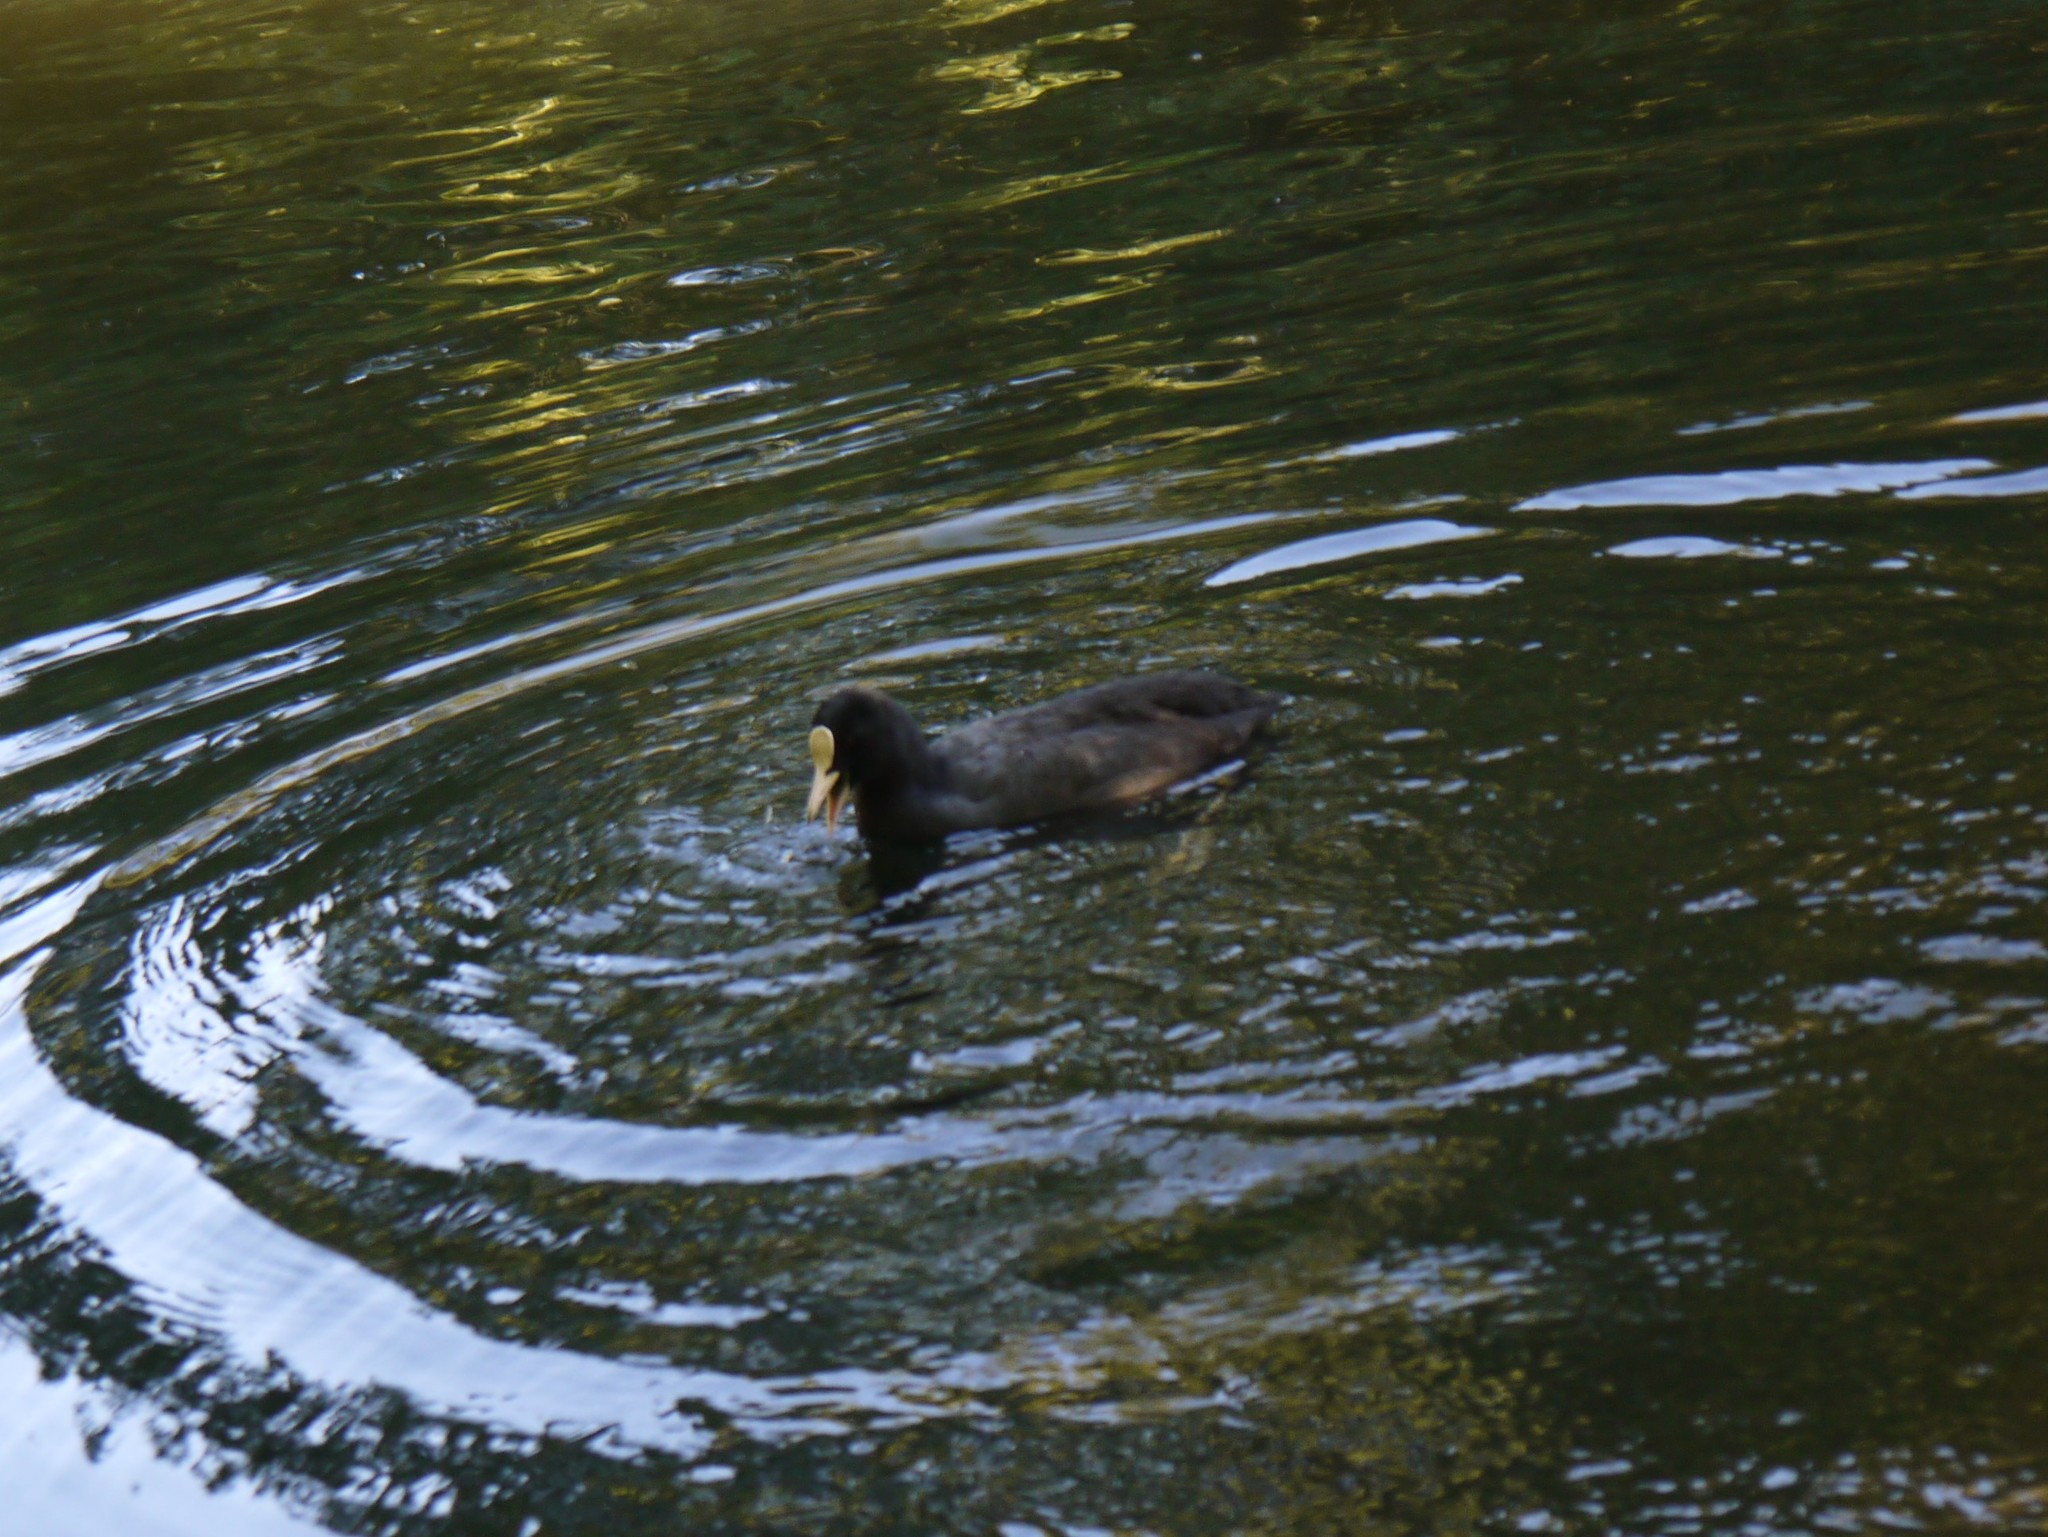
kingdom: Animalia
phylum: Chordata
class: Aves
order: Gruiformes
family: Rallidae
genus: Fulica
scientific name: Fulica atra
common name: Eurasian coot
